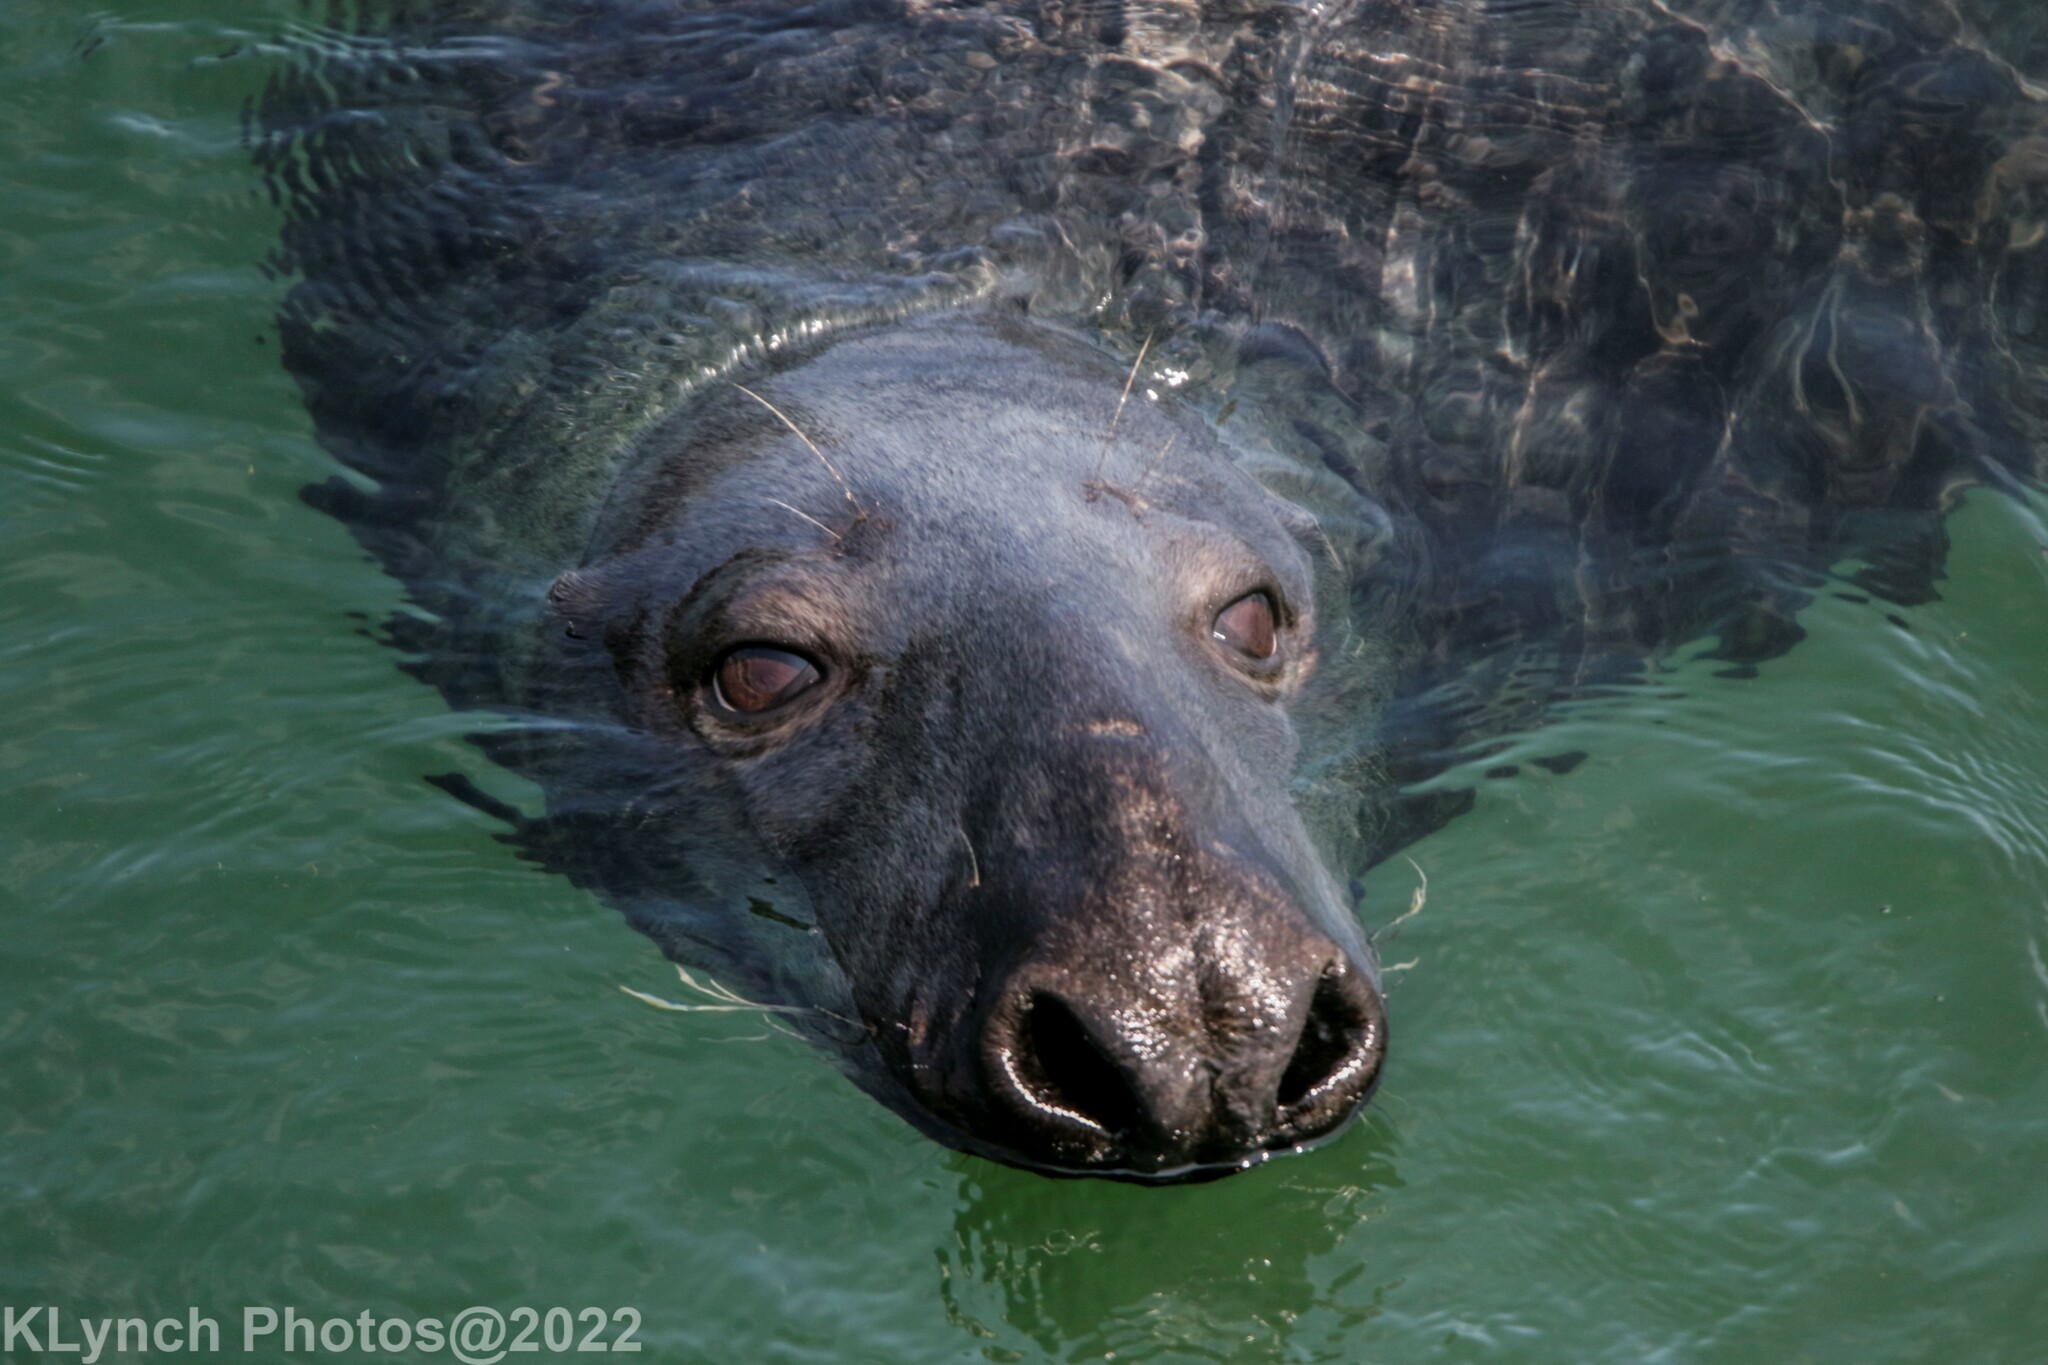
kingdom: Animalia
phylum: Chordata
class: Mammalia
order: Carnivora
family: Phocidae
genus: Halichoerus
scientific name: Halichoerus grypus
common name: Grey seal
